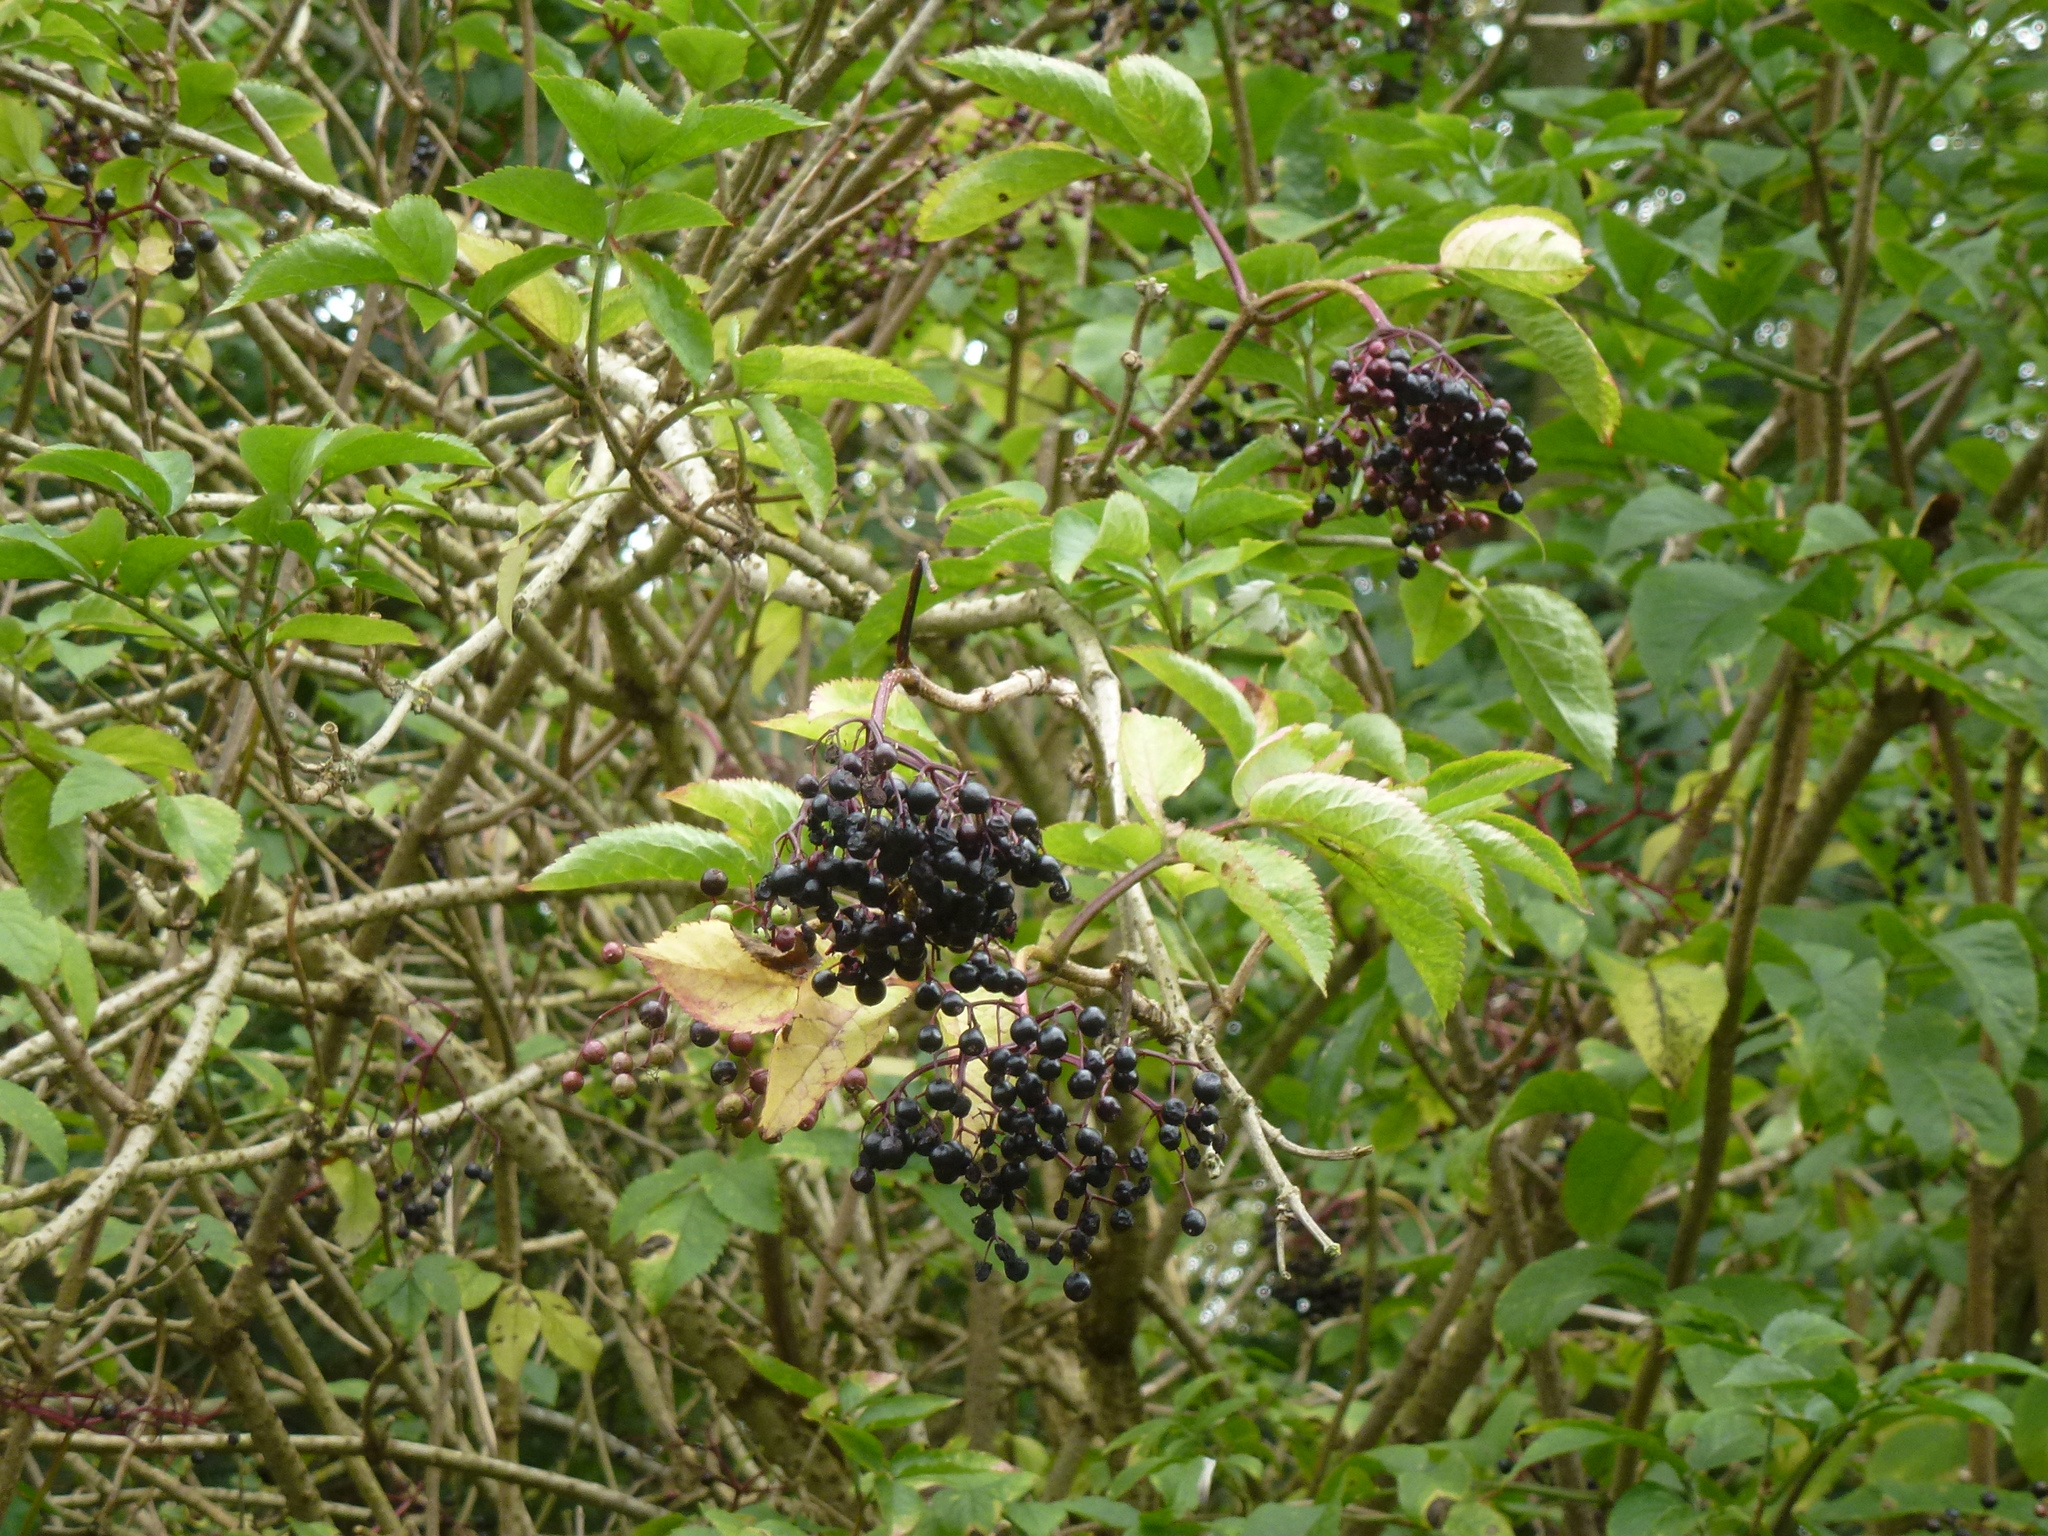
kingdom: Plantae
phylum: Tracheophyta
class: Magnoliopsida
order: Dipsacales
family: Viburnaceae
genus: Sambucus
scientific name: Sambucus nigra
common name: Elder
